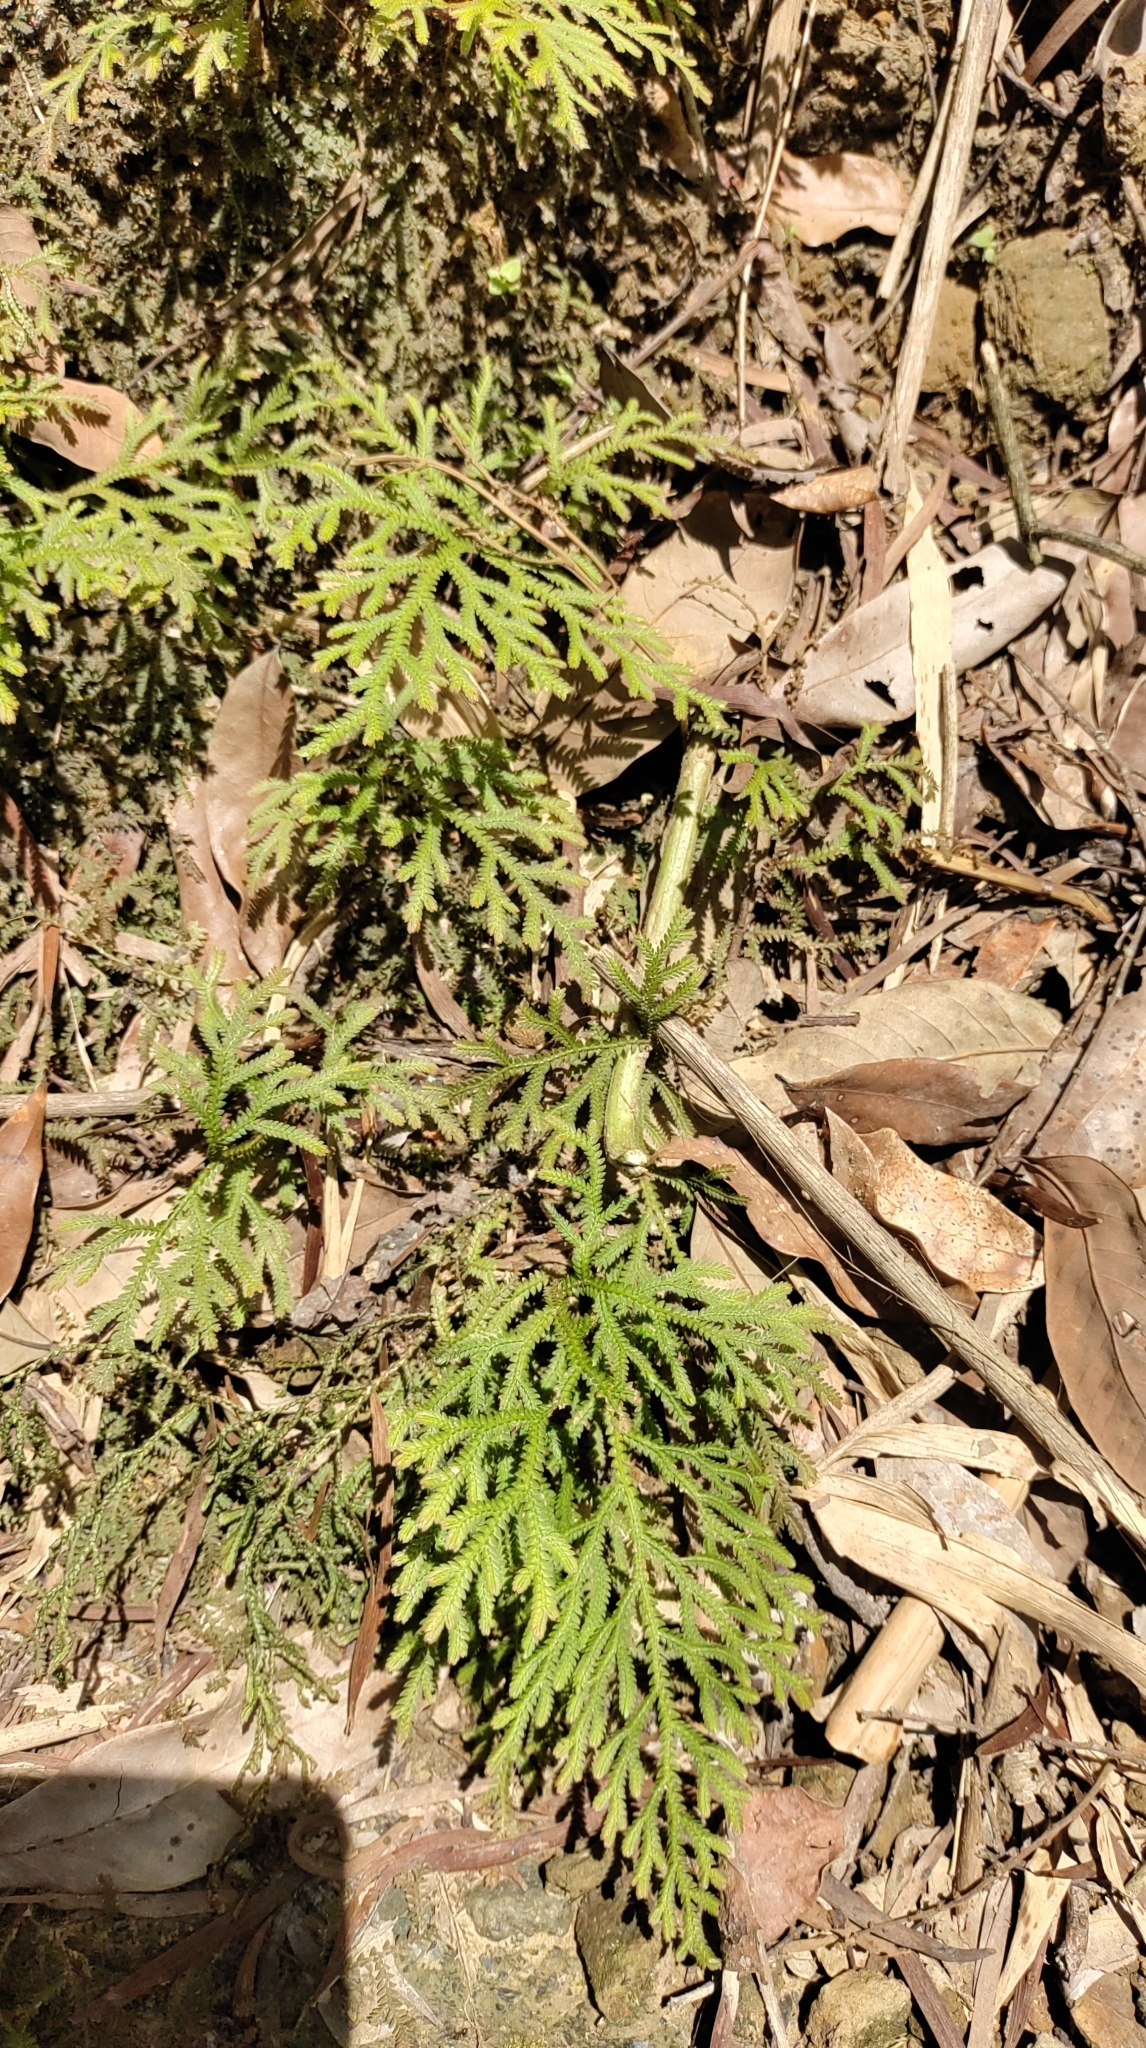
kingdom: Plantae
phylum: Tracheophyta
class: Lycopodiopsida
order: Selaginellales
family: Selaginellaceae
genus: Selaginella
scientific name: Selaginella repanda
